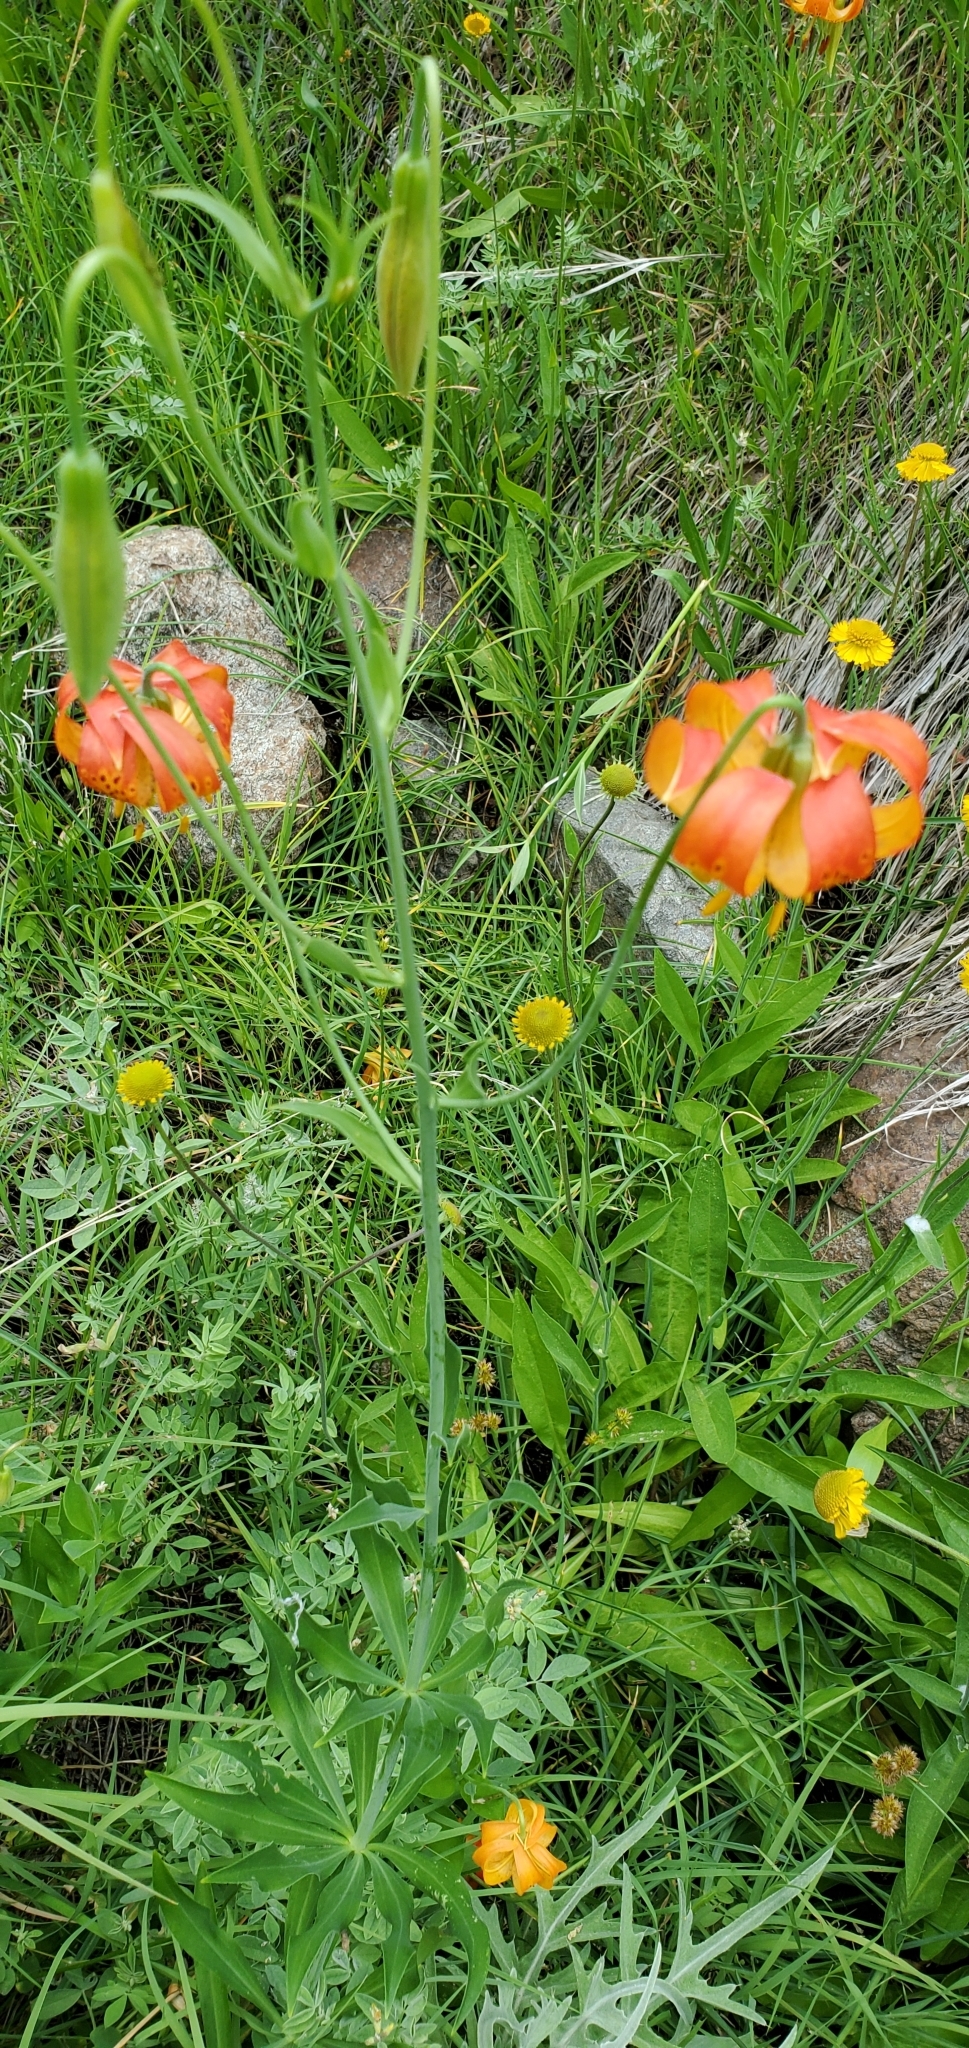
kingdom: Plantae
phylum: Tracheophyta
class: Liliopsida
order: Liliales
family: Liliaceae
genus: Lilium
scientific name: Lilium pardalinum
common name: Panther lily
